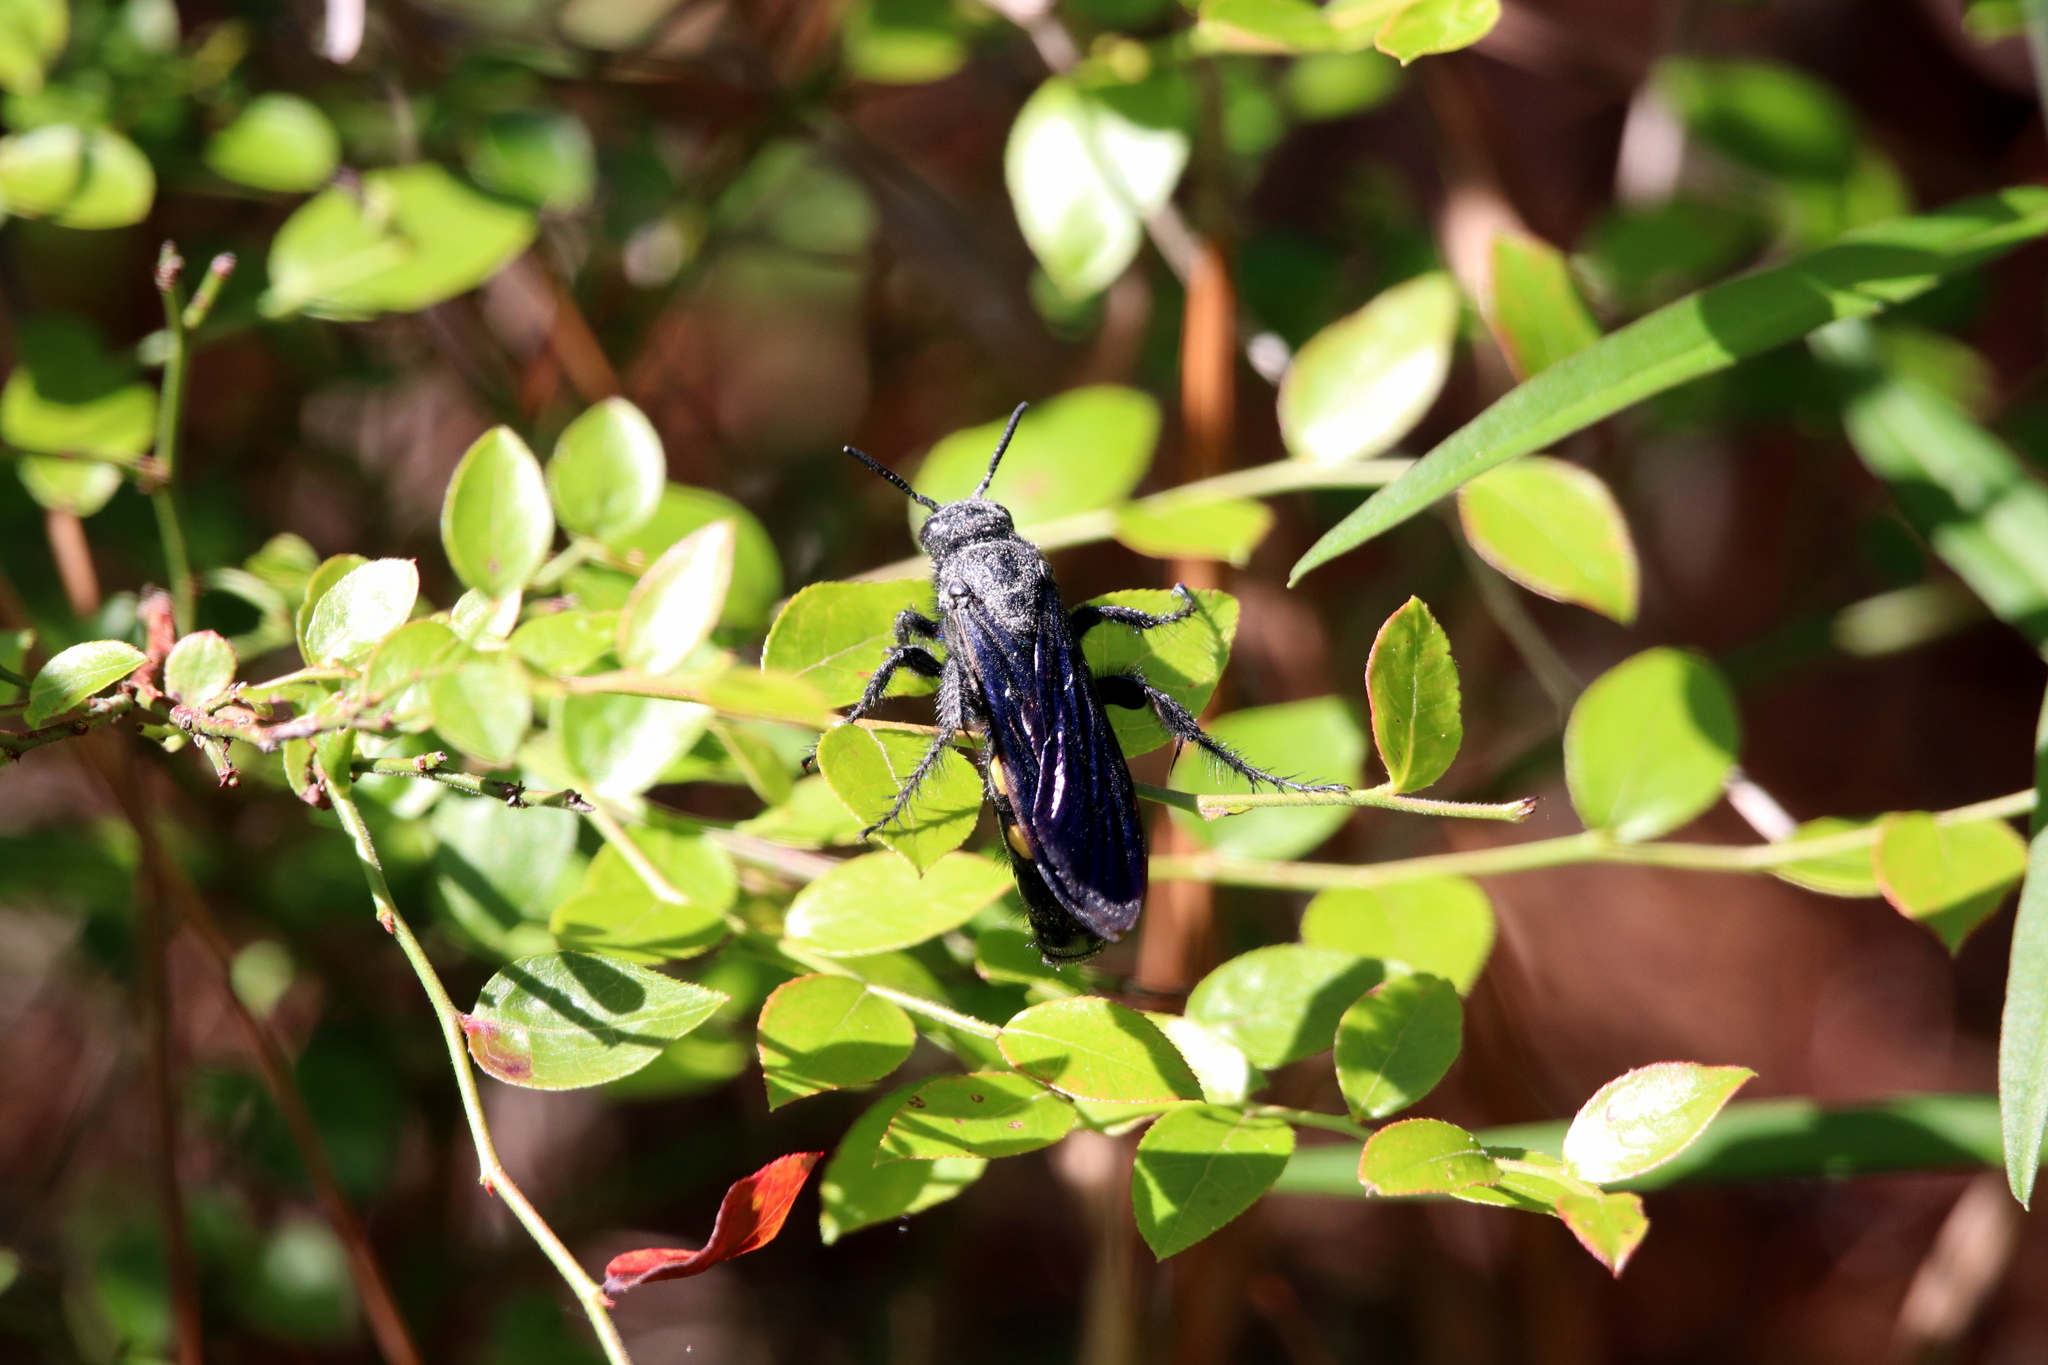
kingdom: Animalia
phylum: Arthropoda
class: Insecta
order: Hymenoptera
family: Scoliidae
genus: Scolia
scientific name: Scolia bicincta
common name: Double-banded scoliid wasp
